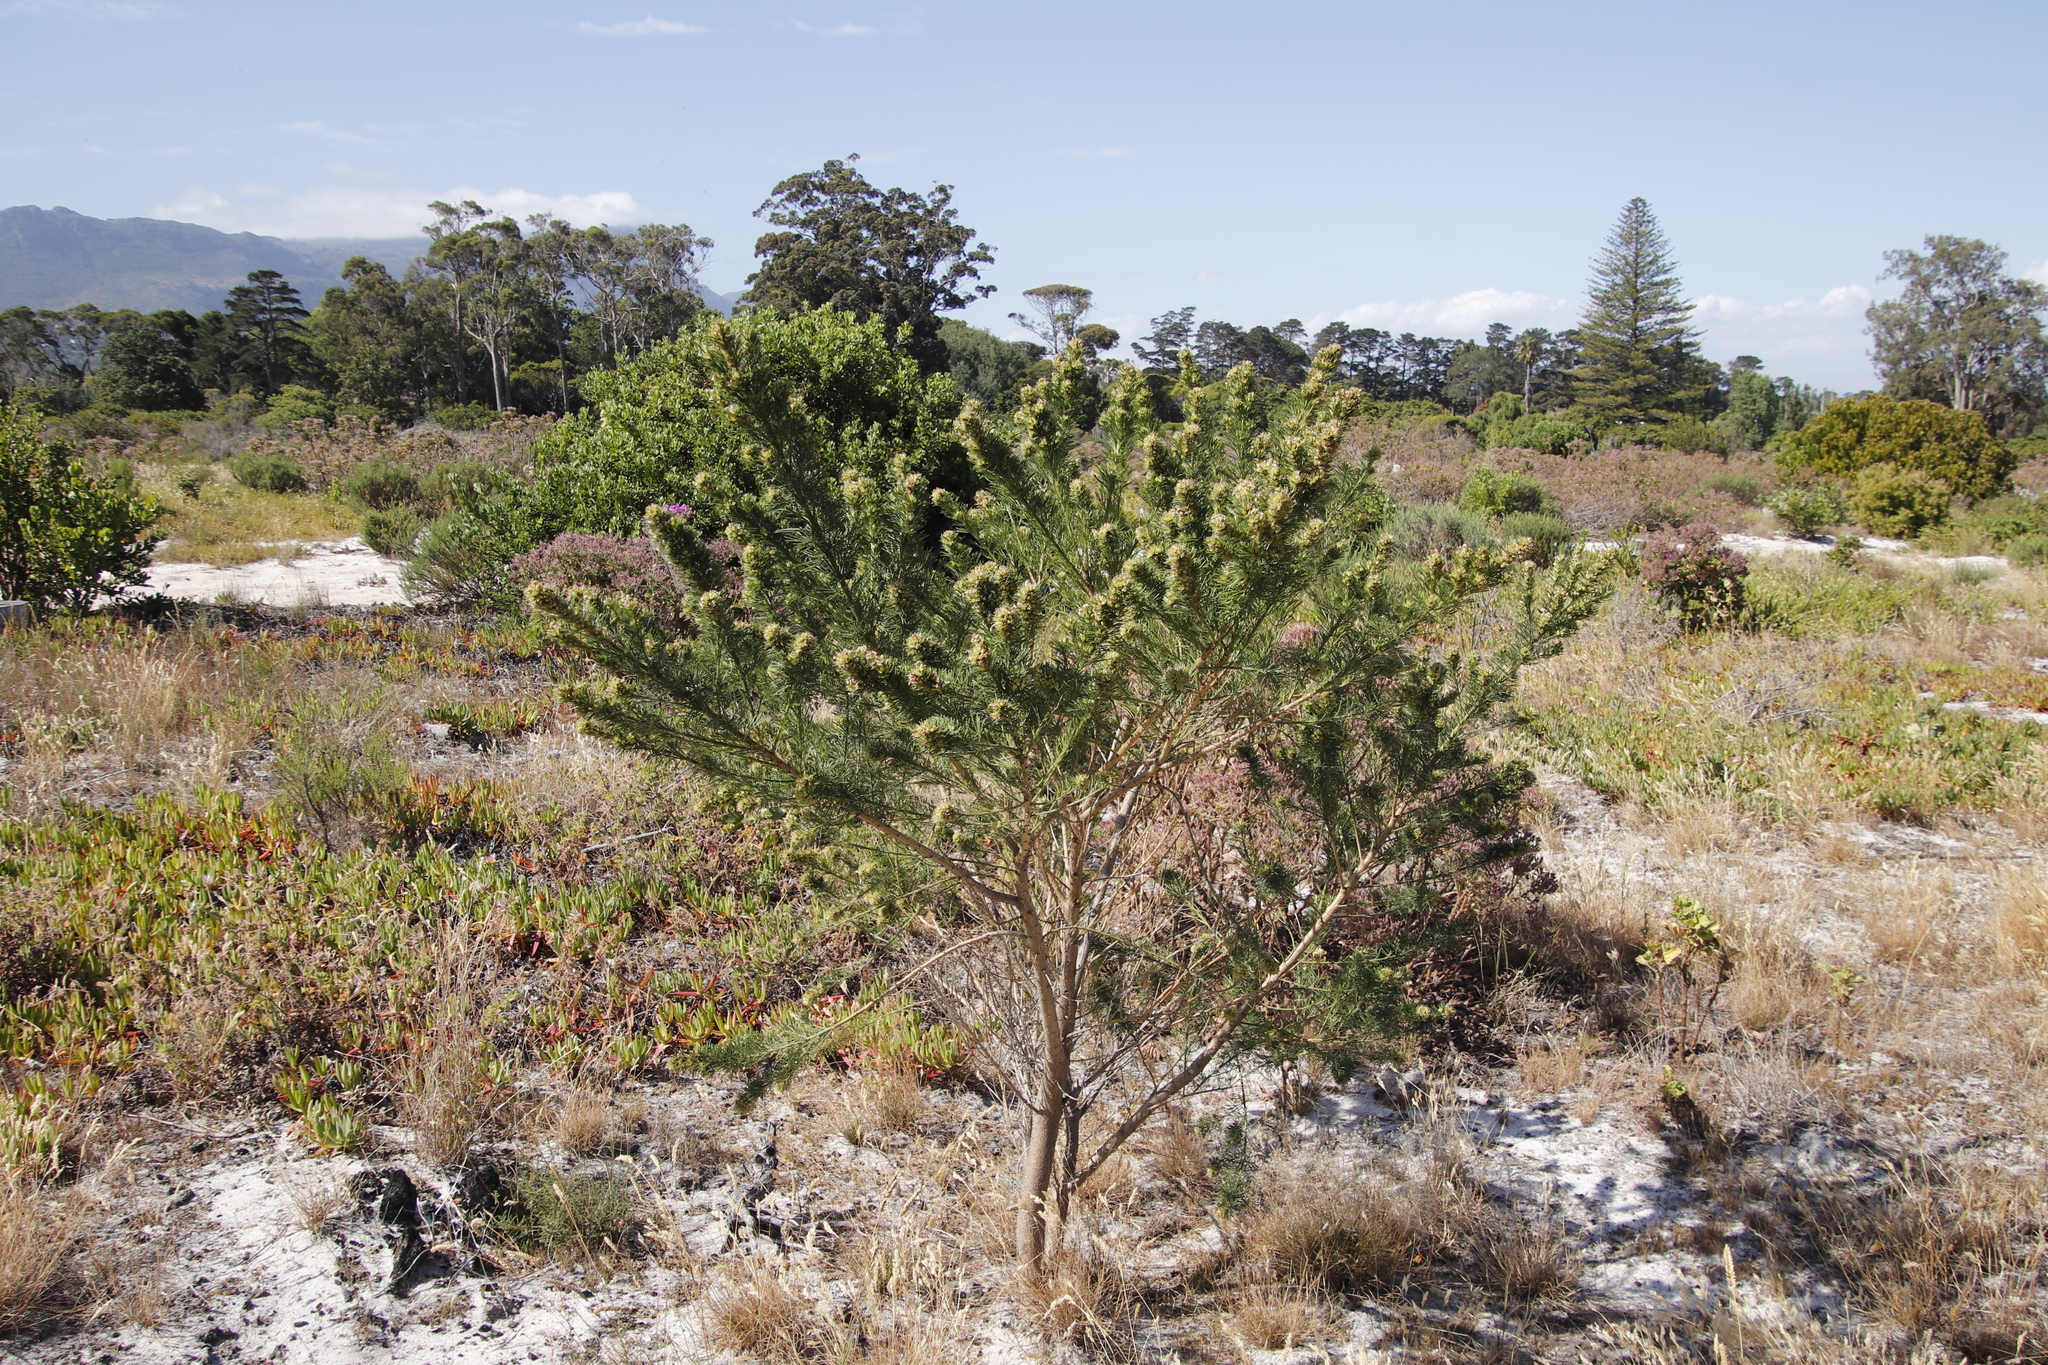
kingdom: Plantae
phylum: Tracheophyta
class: Magnoliopsida
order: Fabales
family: Fabaceae
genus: Psoralea
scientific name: Psoralea pinnata
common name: African scurfpea
